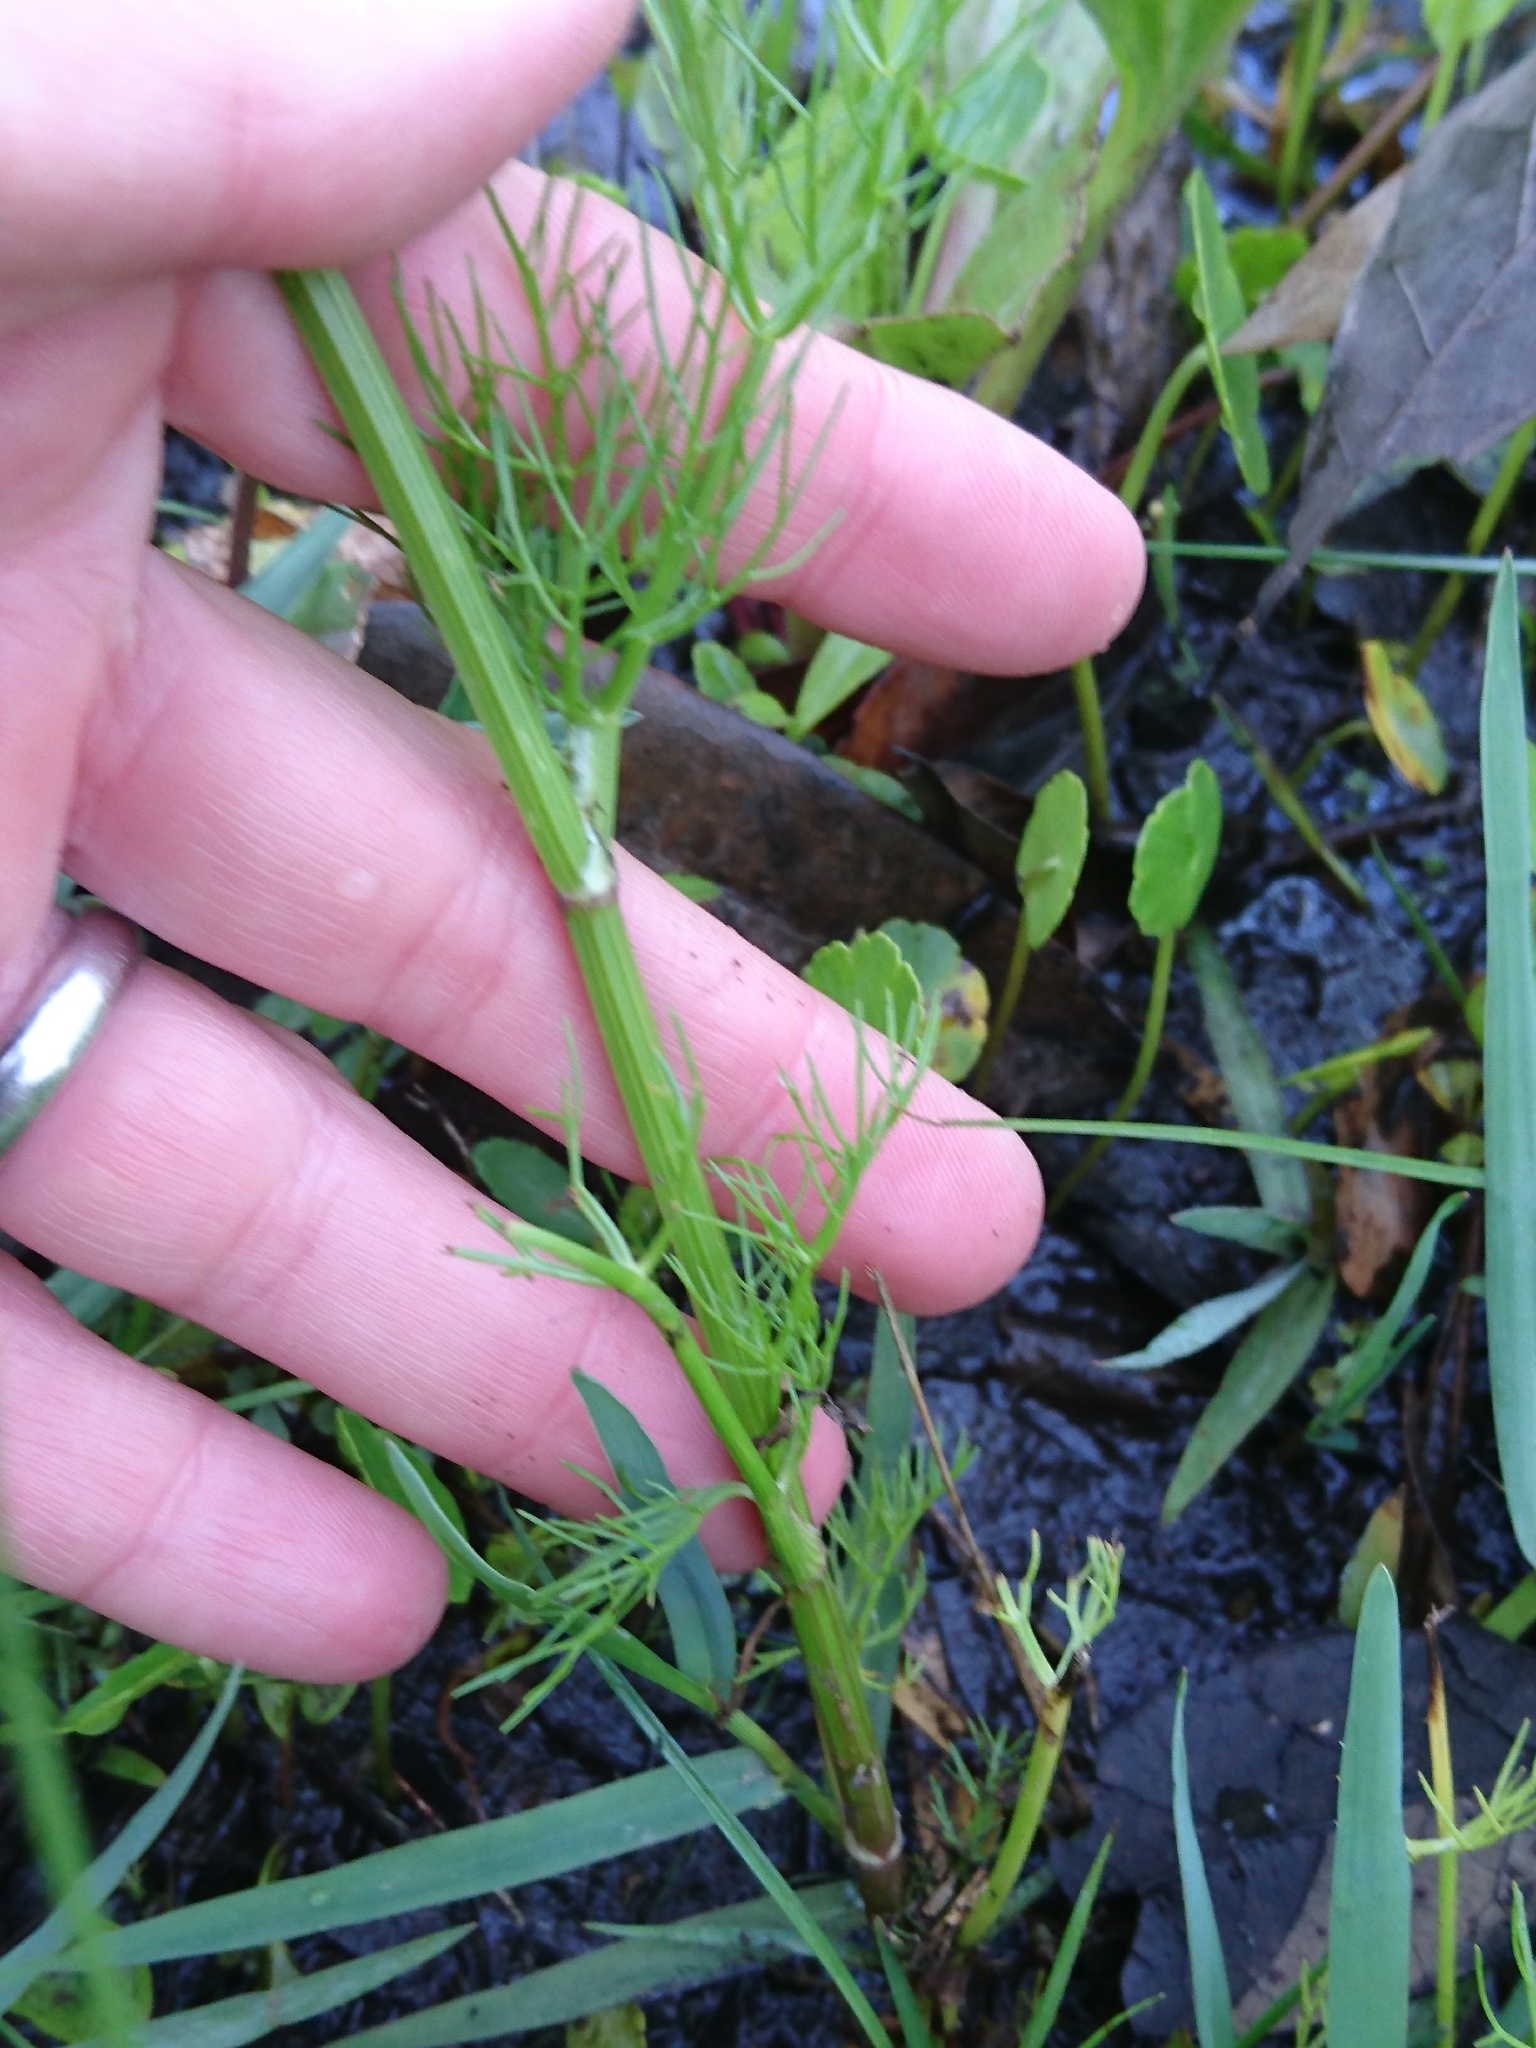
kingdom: Plantae
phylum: Tracheophyta
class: Magnoliopsida
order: Apiales
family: Apiaceae
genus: Ptilimnium
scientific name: Ptilimnium capillaceum
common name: Herbwilliam
